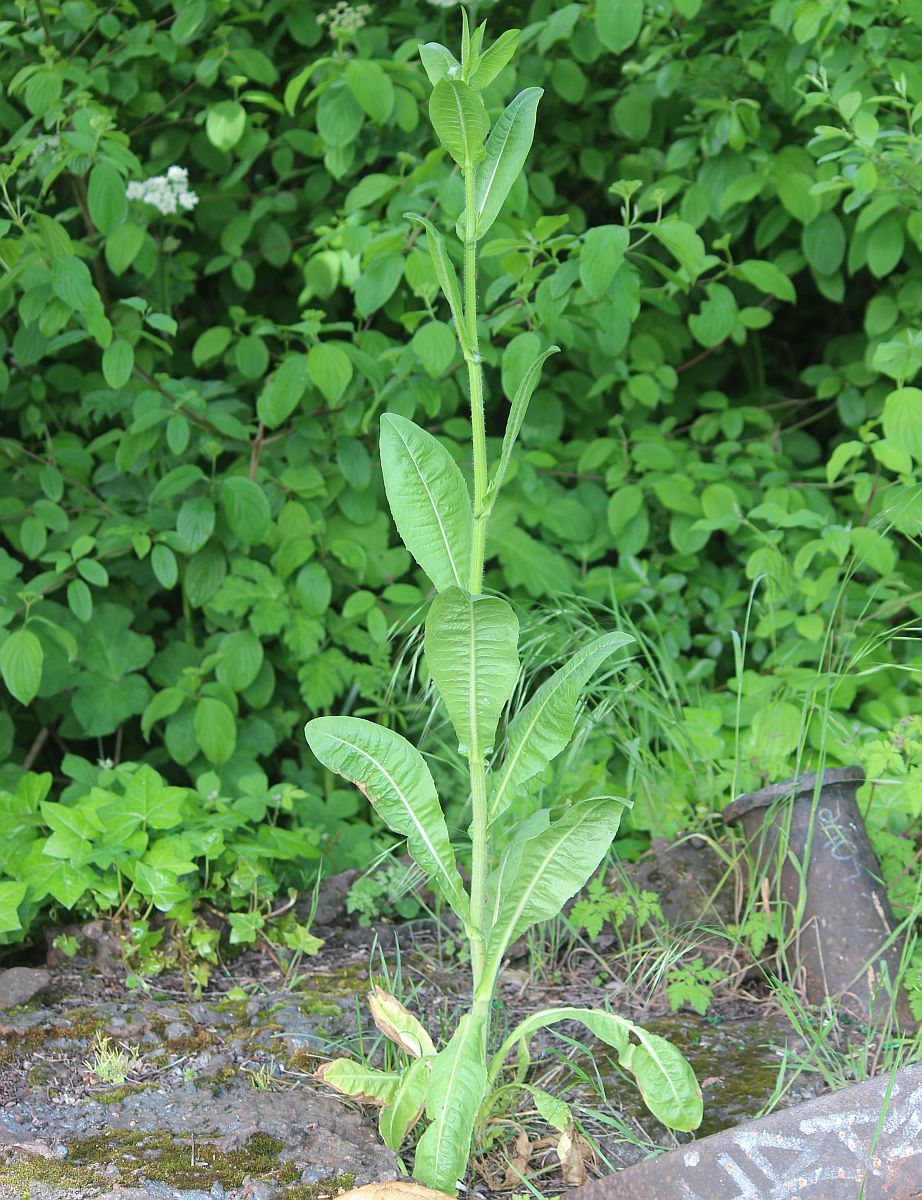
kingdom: Plantae
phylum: Tracheophyta
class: Magnoliopsida
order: Asterales
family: Asteraceae
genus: Cichorium
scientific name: Cichorium intybus
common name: Chicory
